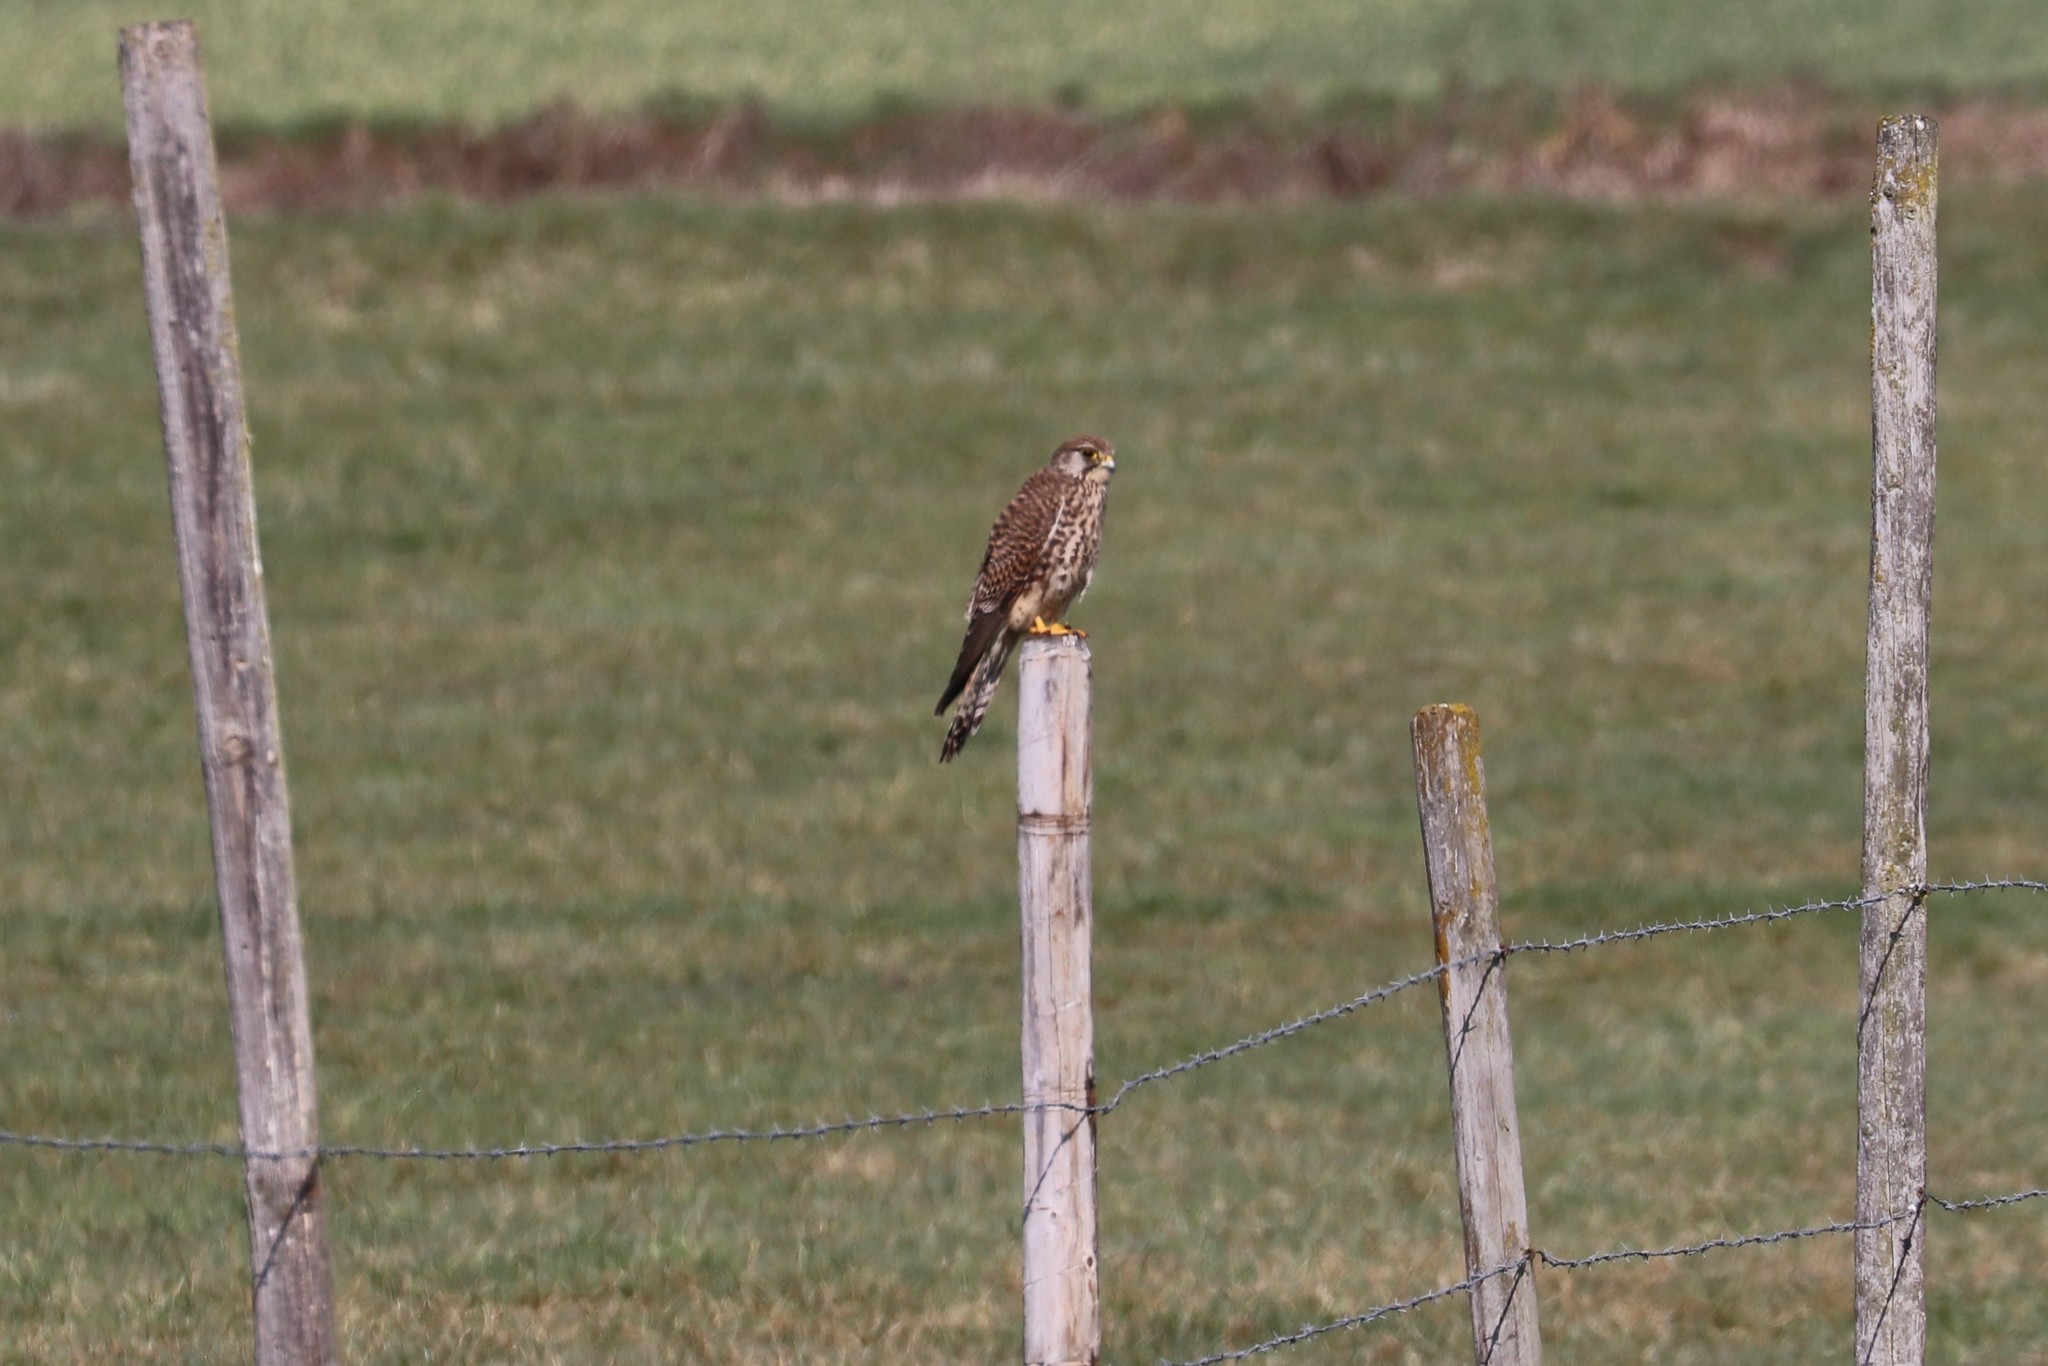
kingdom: Animalia
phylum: Chordata
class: Aves
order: Falconiformes
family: Falconidae
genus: Falco
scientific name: Falco tinnunculus
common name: Common kestrel
